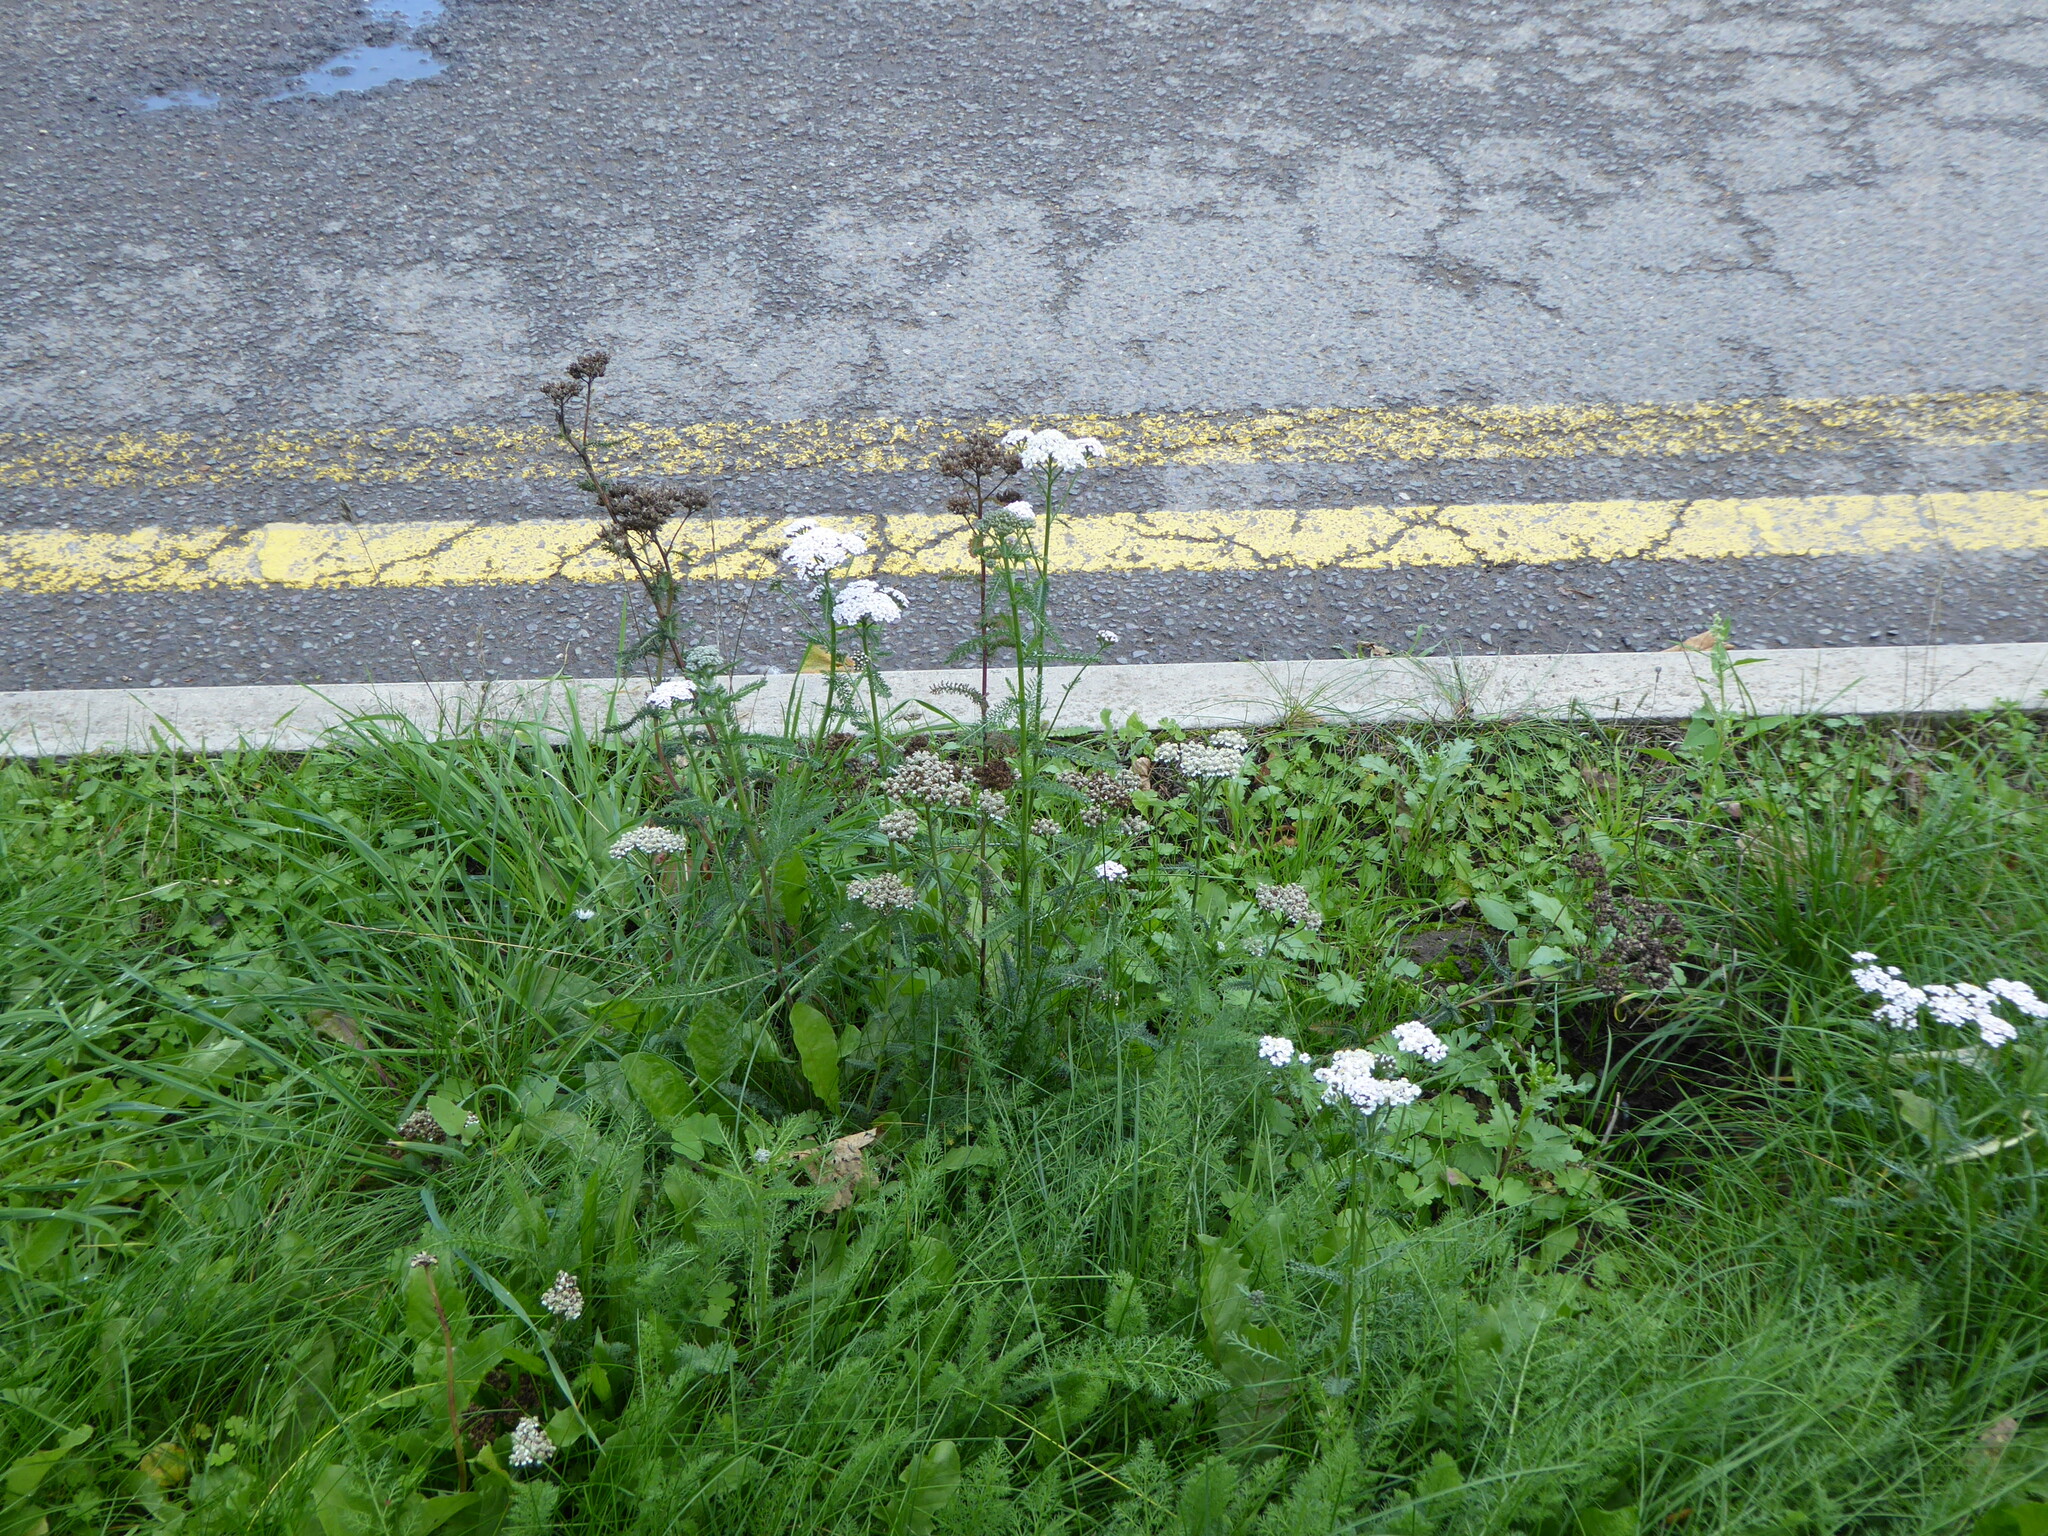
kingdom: Plantae
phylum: Tracheophyta
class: Magnoliopsida
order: Asterales
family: Asteraceae
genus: Achillea
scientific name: Achillea millefolium
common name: Yarrow
